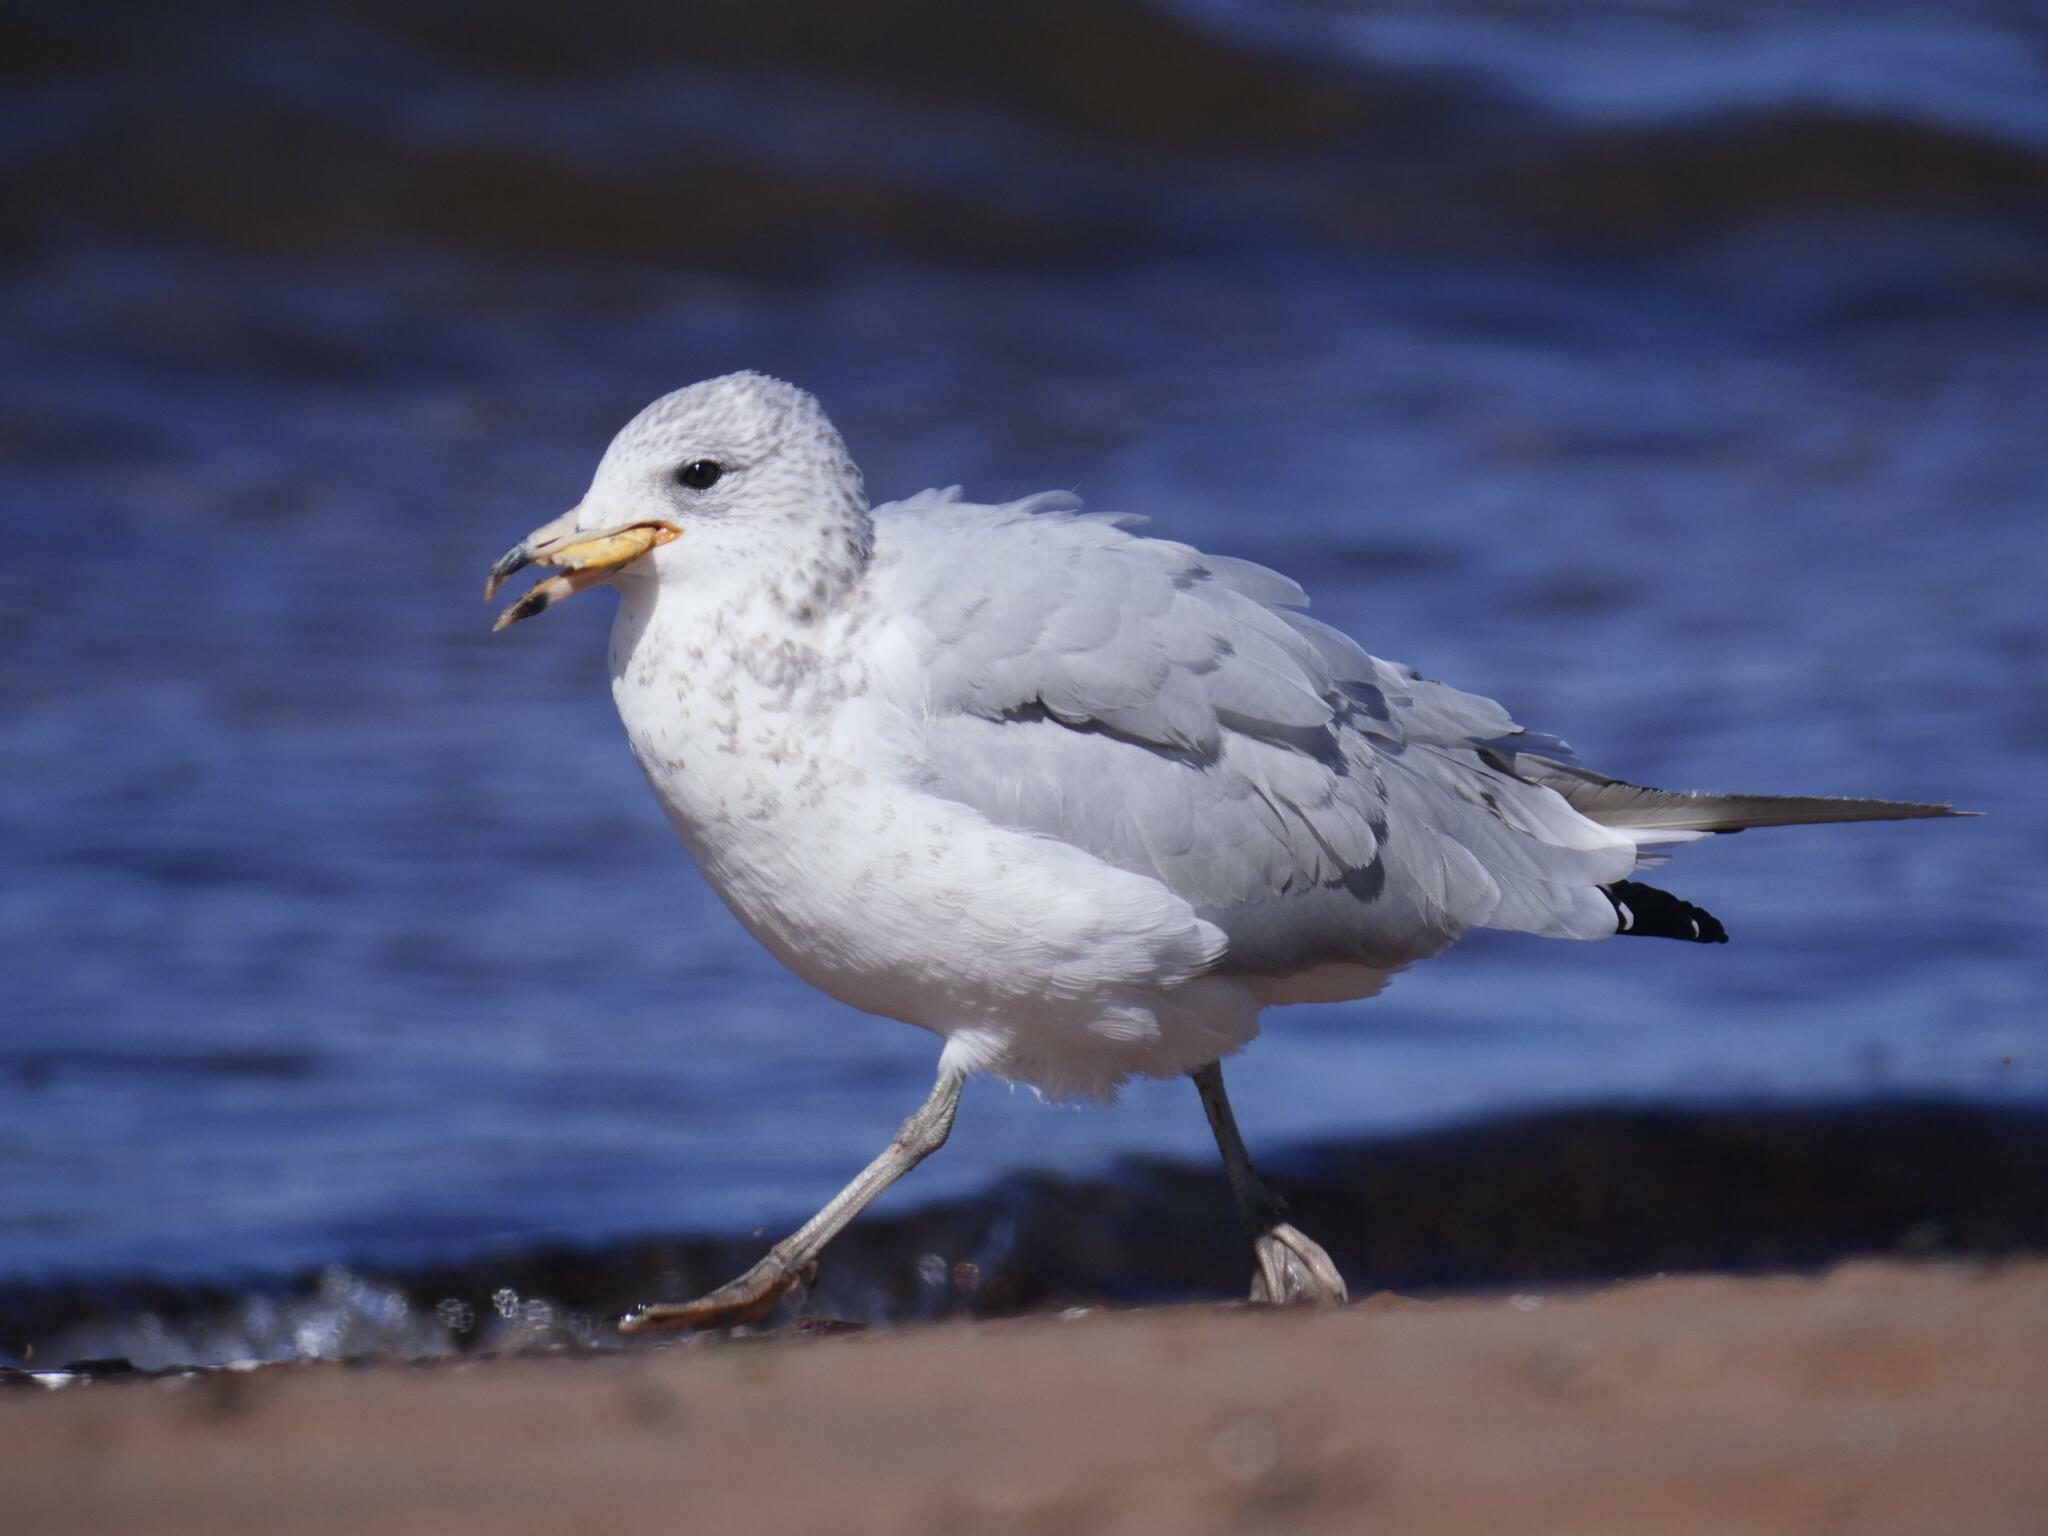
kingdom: Animalia
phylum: Chordata
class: Aves
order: Charadriiformes
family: Laridae
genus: Larus
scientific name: Larus delawarensis
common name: Ring-billed gull
